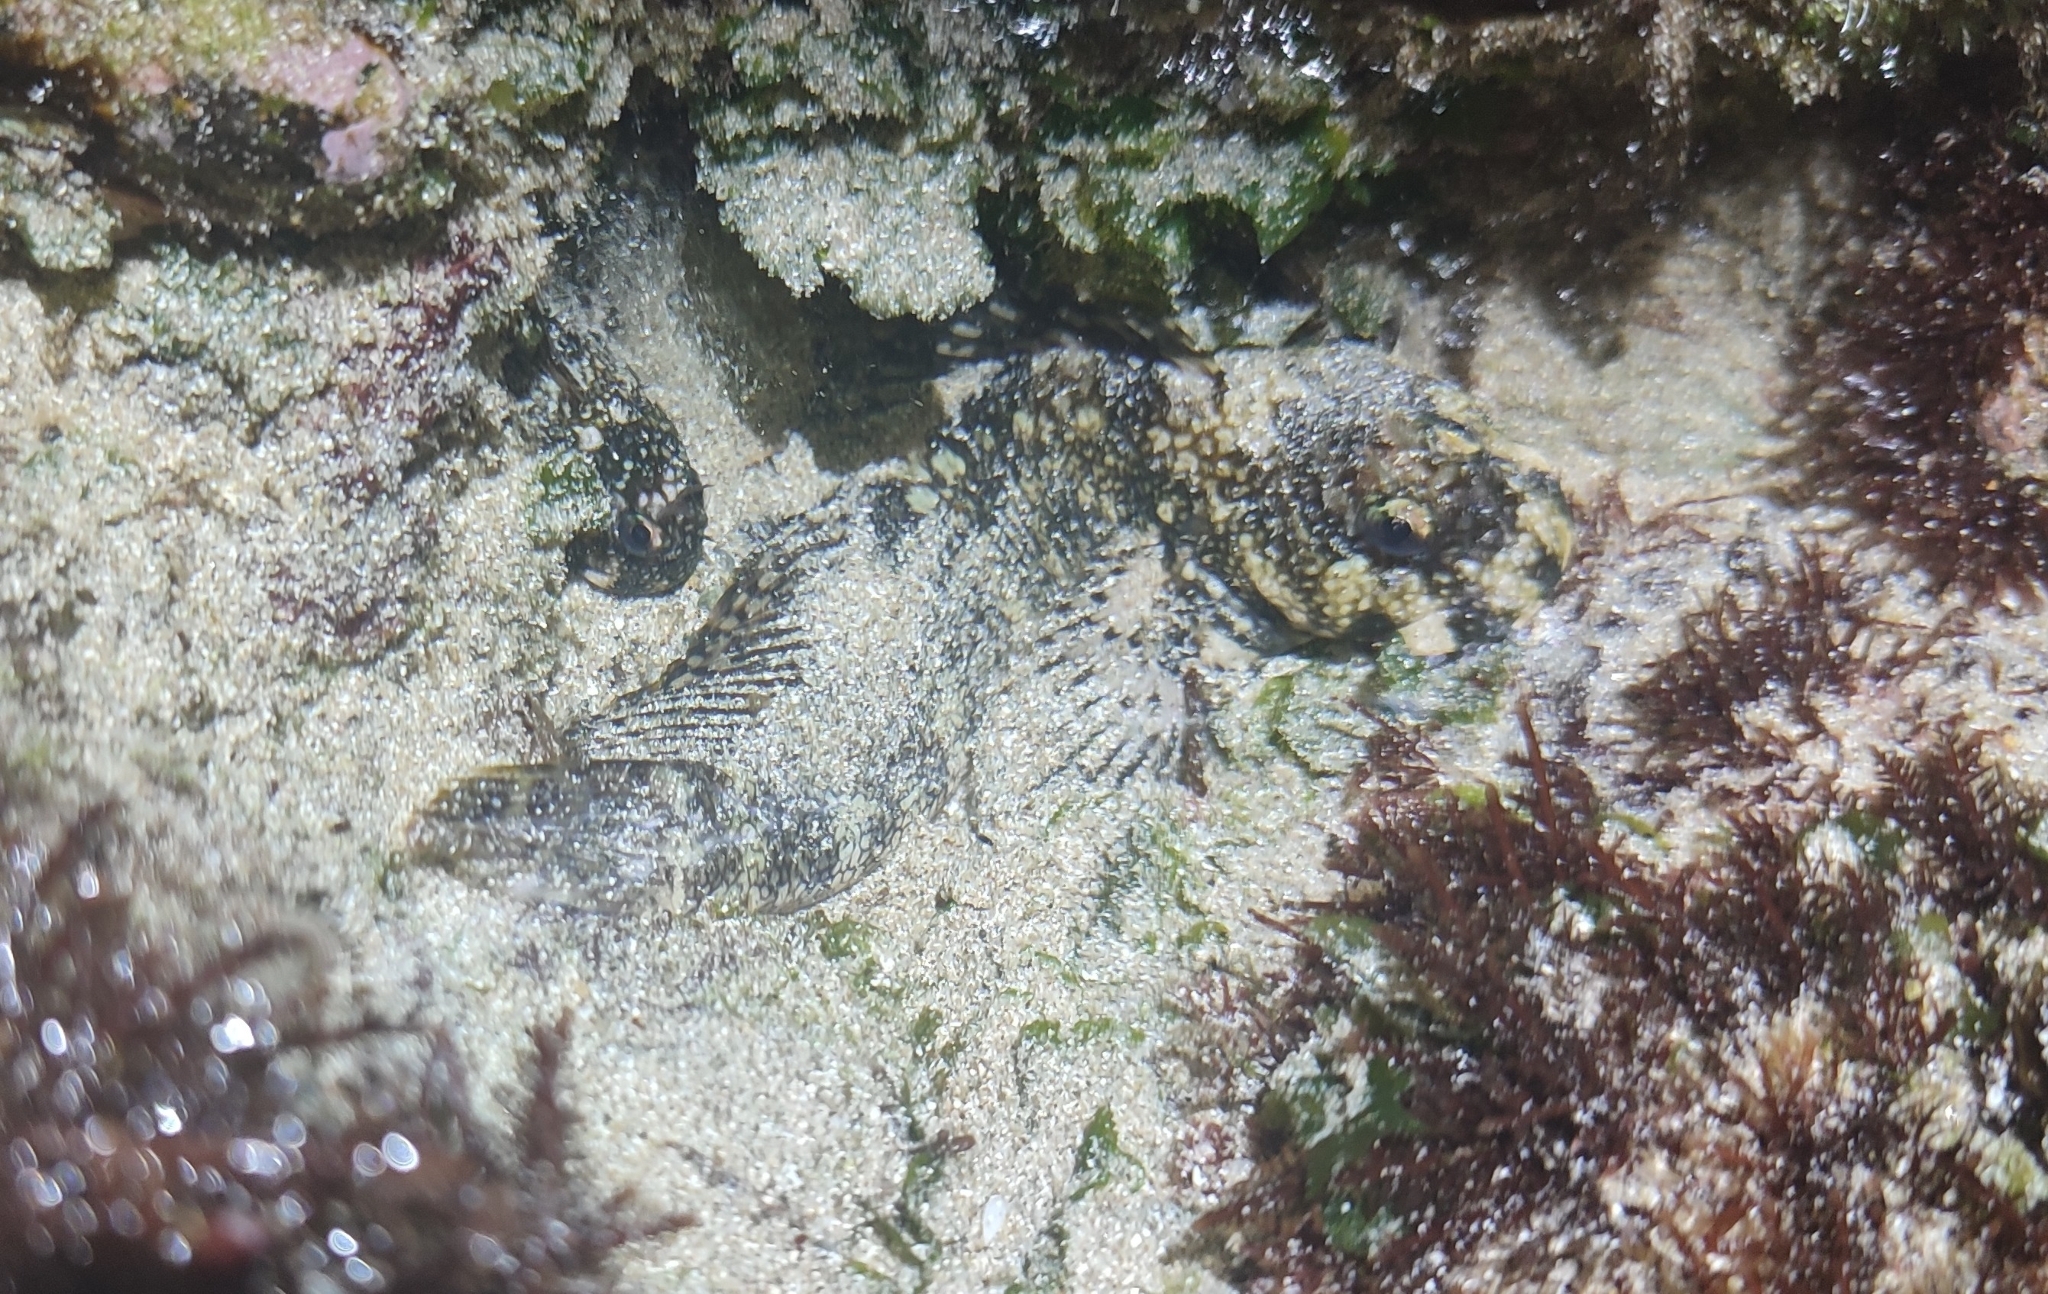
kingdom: Animalia
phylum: Chordata
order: Perciformes
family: Blenniidae
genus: Entomacrodus
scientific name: Entomacrodus vermiculatus
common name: Vermiculated blenny
